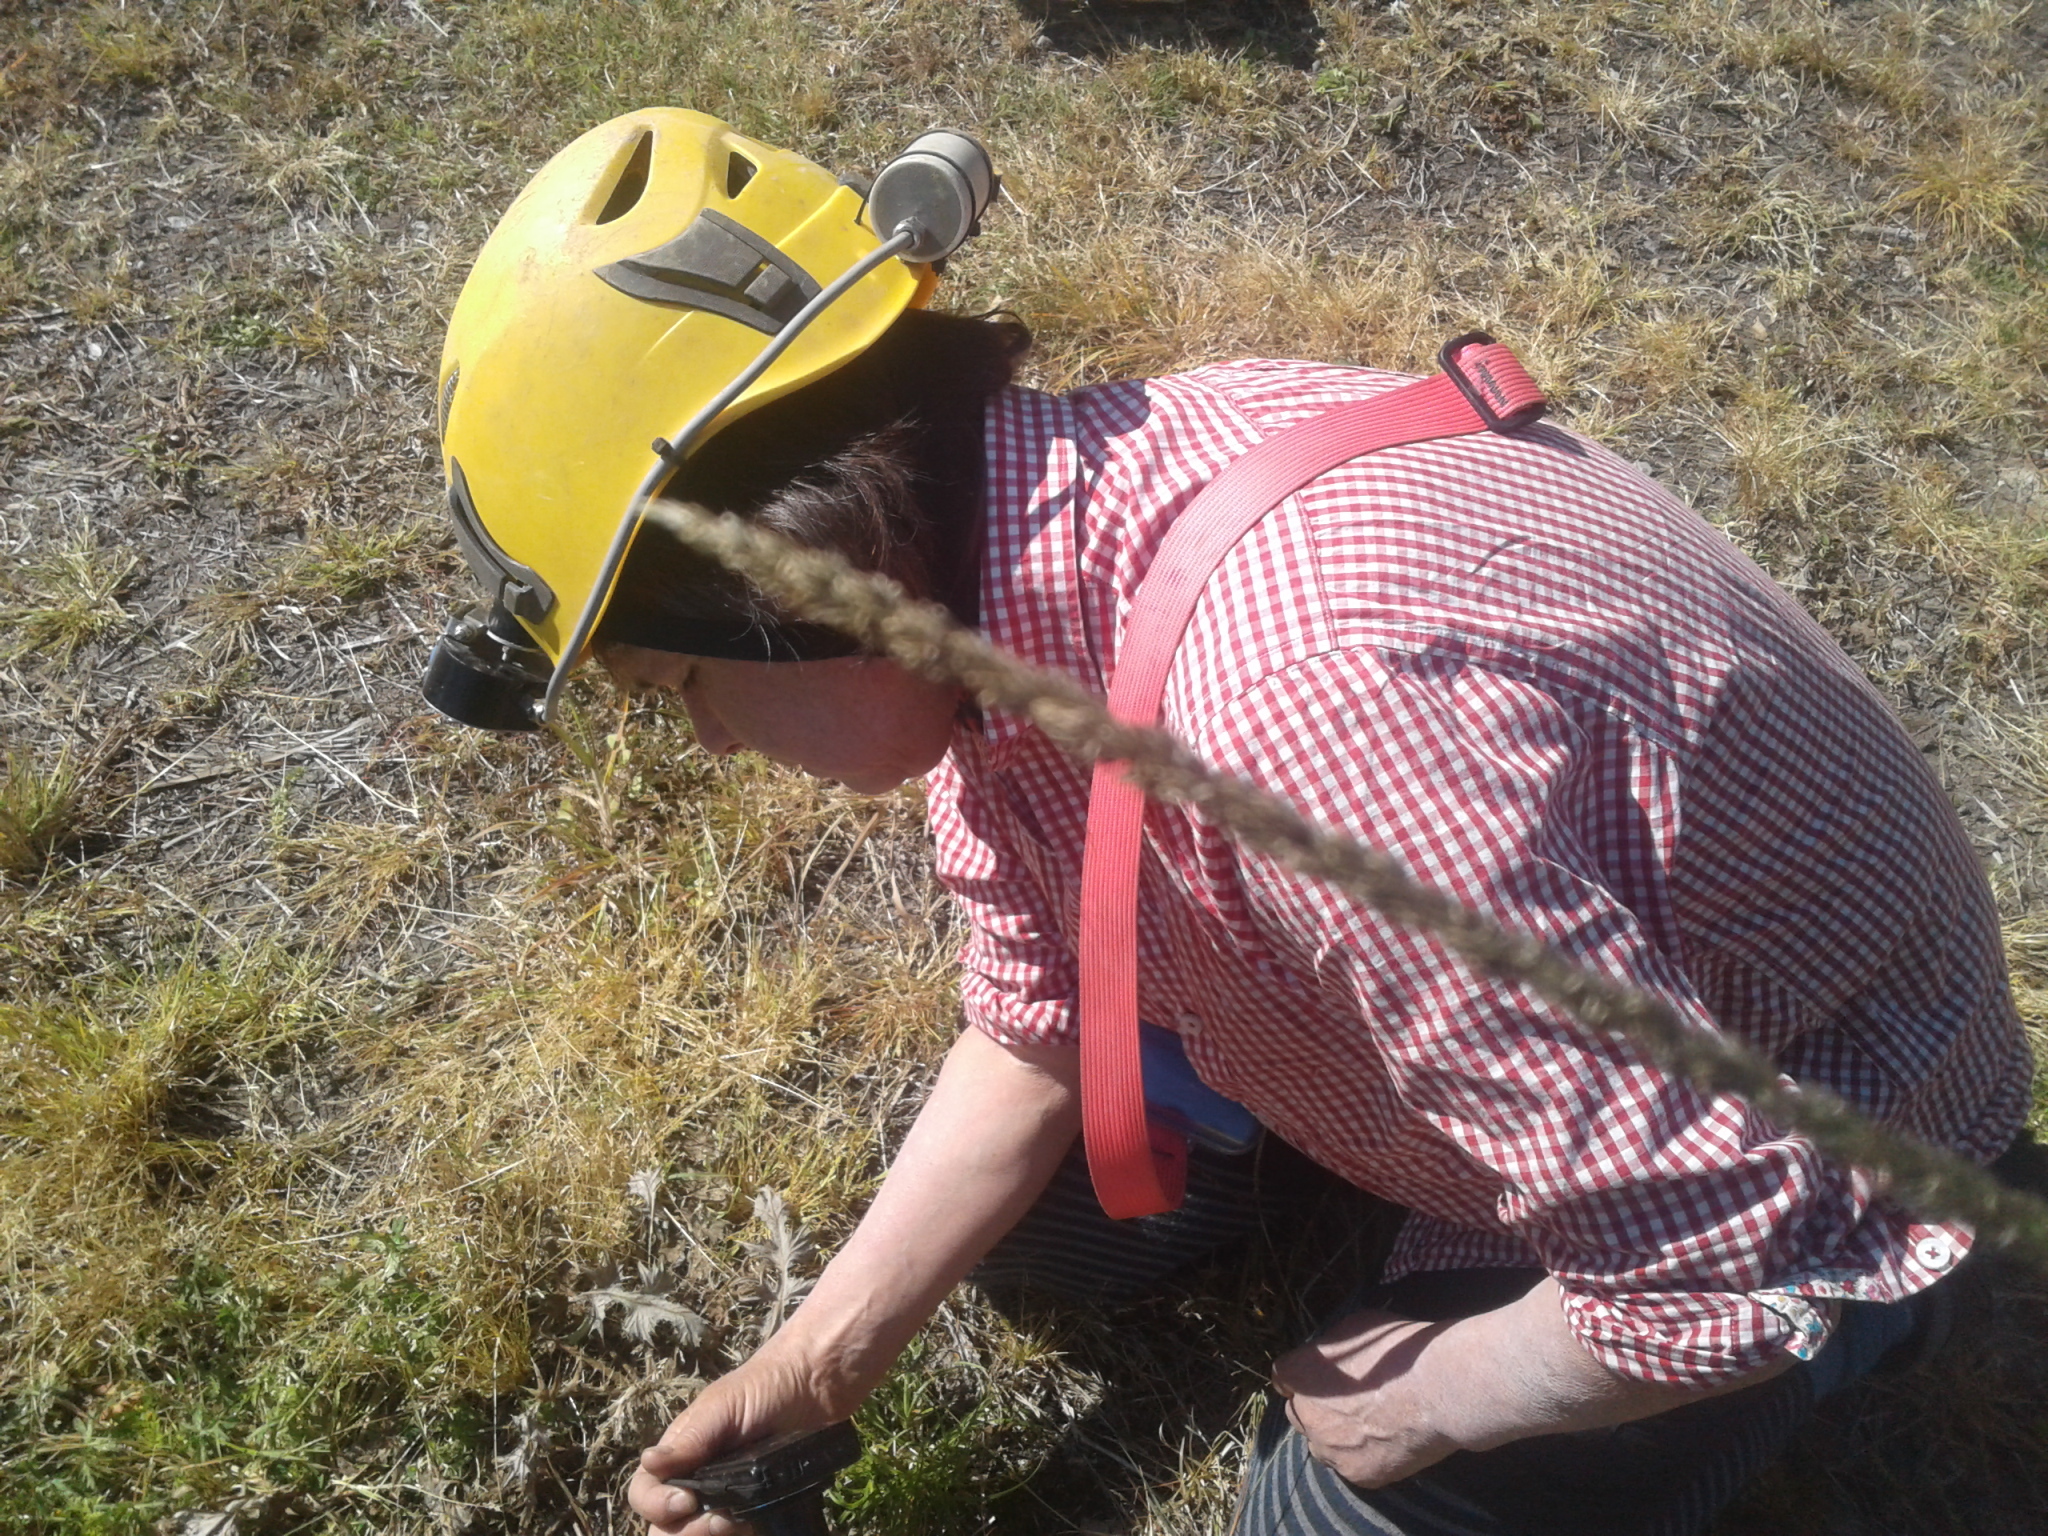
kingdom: Plantae
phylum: Tracheophyta
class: Liliopsida
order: Poales
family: Poaceae
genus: Sporobolus
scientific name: Sporobolus africanus
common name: African dropseed
